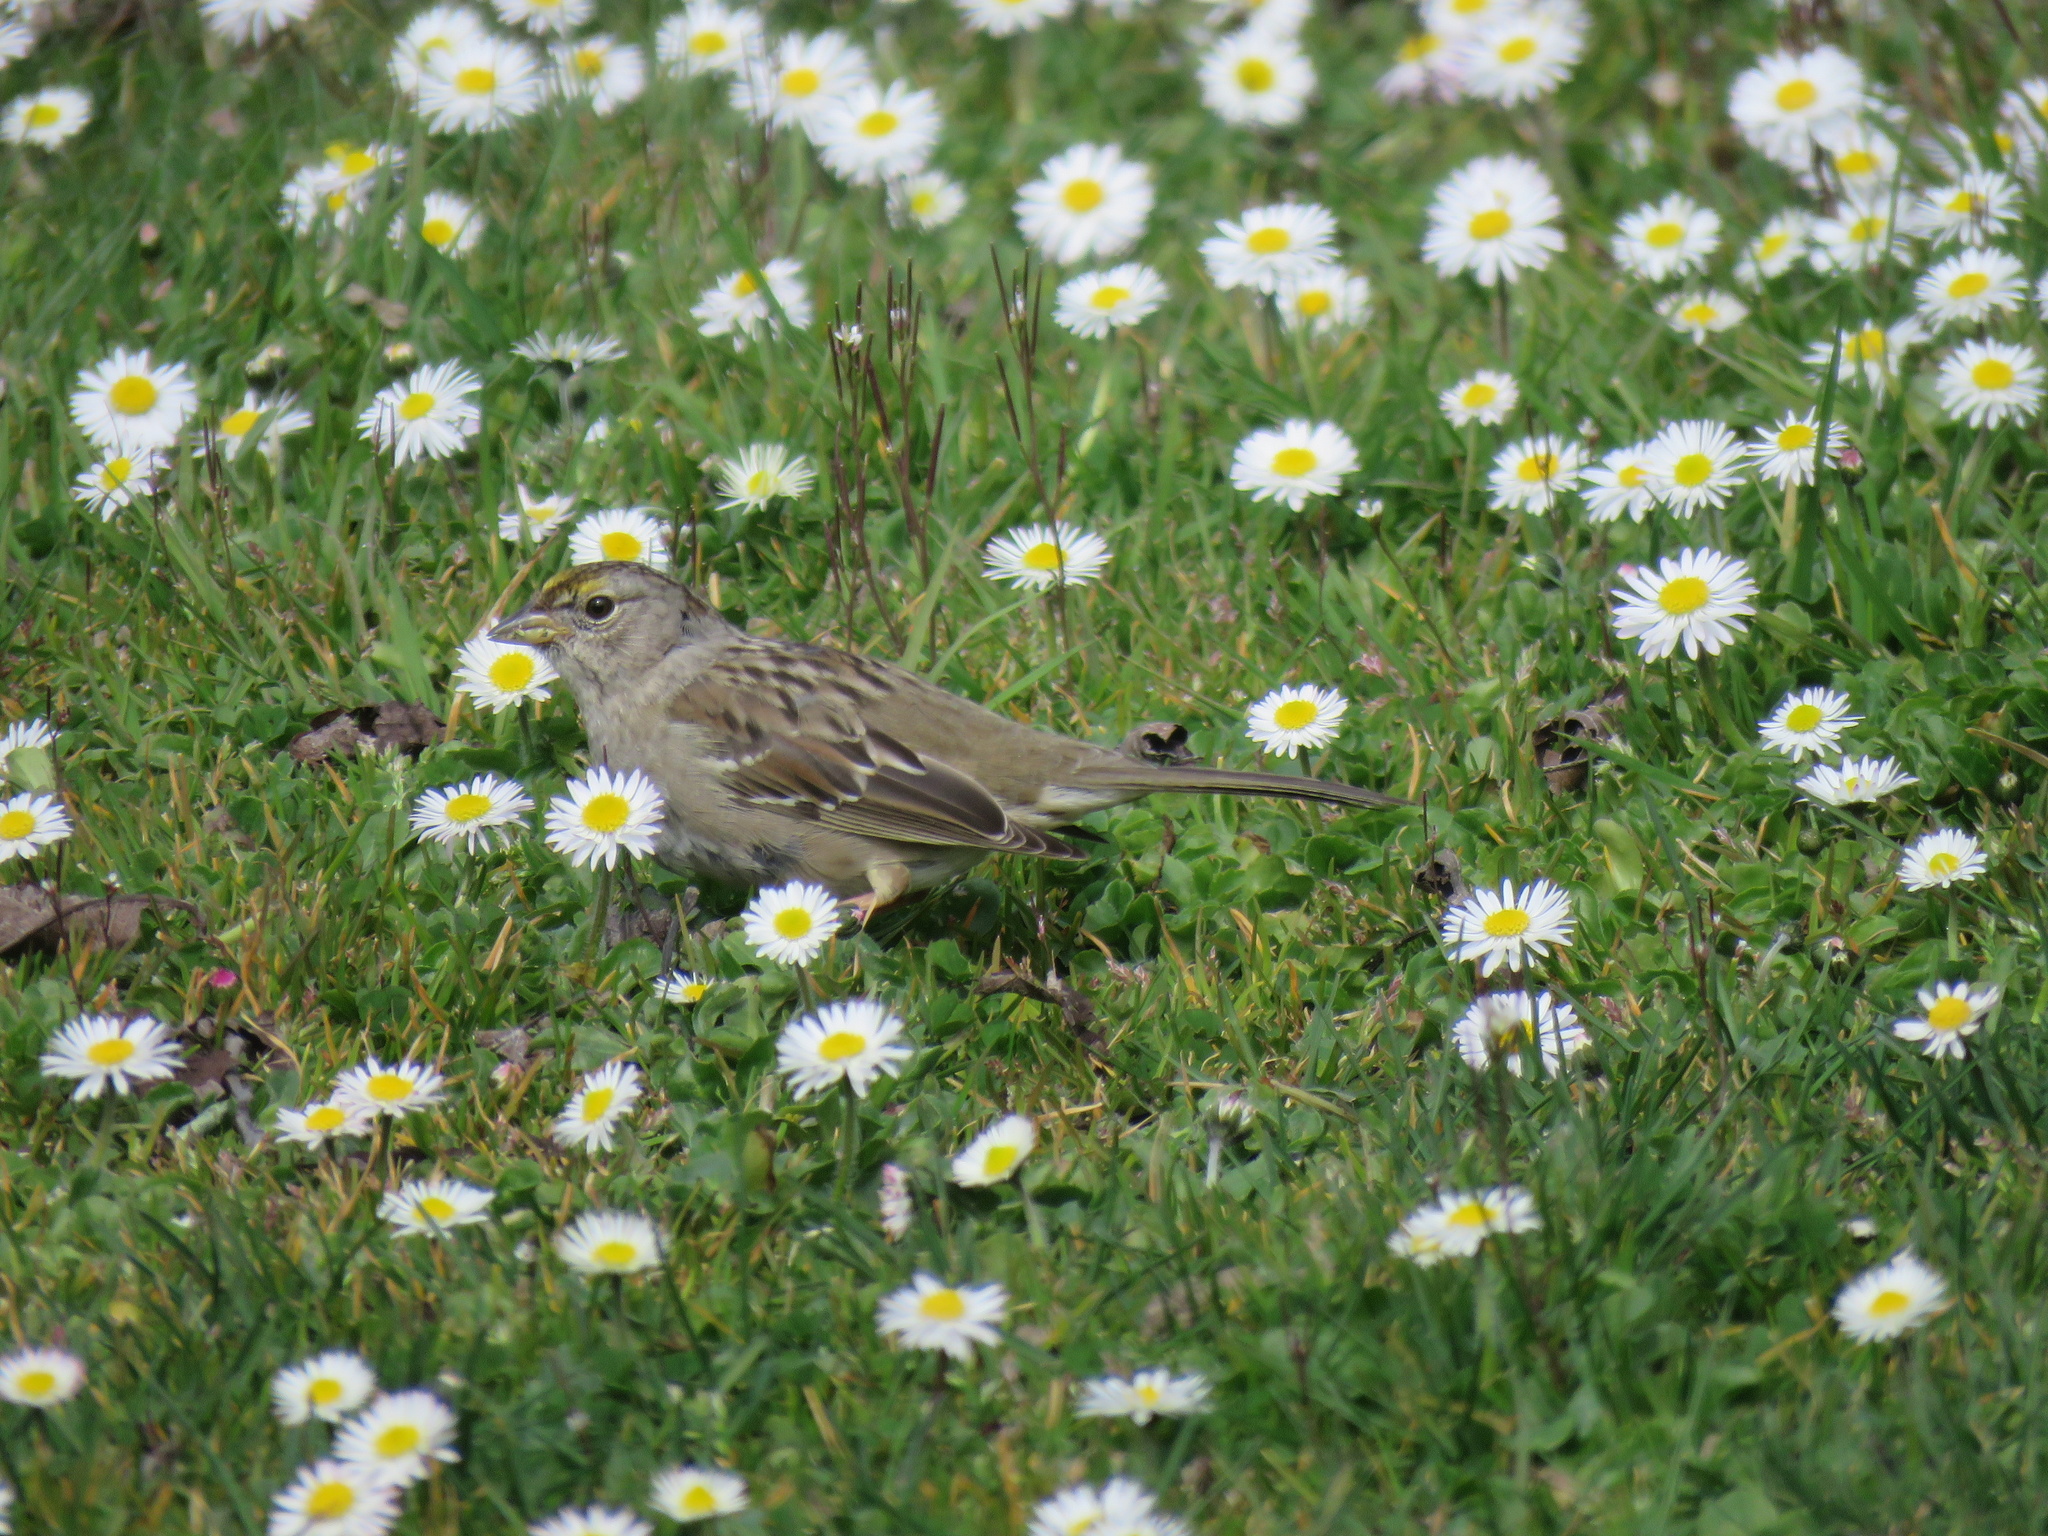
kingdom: Animalia
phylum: Chordata
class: Aves
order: Passeriformes
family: Passerellidae
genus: Zonotrichia
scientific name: Zonotrichia atricapilla
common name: Golden-crowned sparrow
